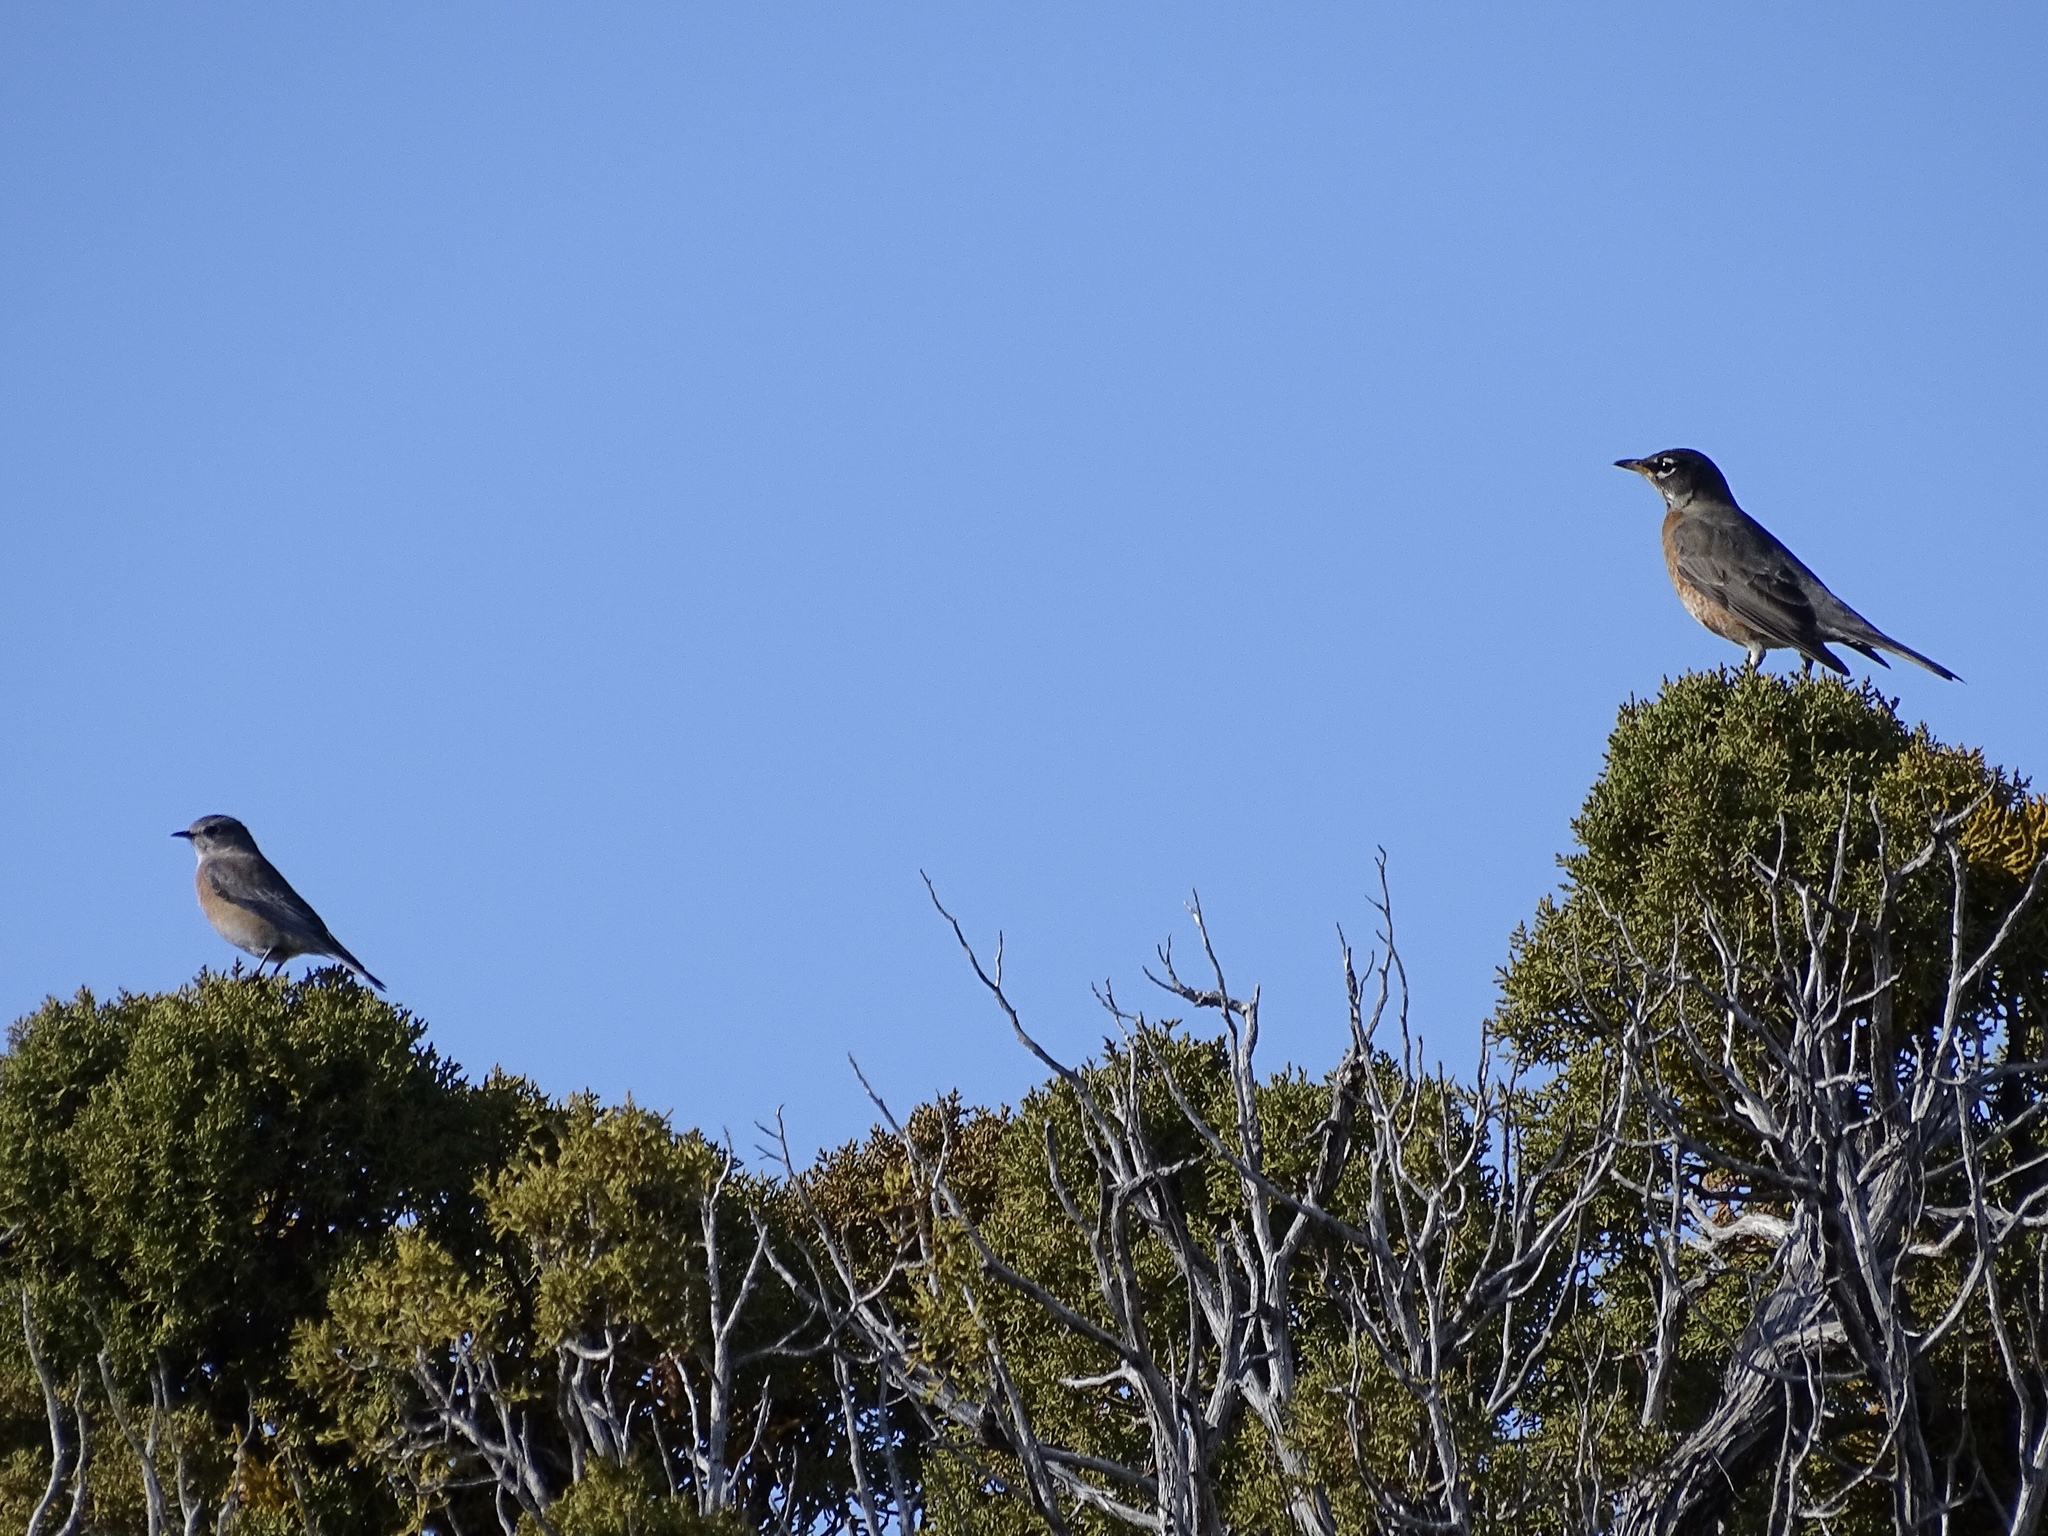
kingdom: Animalia
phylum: Chordata
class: Aves
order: Passeriformes
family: Turdidae
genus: Turdus
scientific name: Turdus migratorius
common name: American robin
